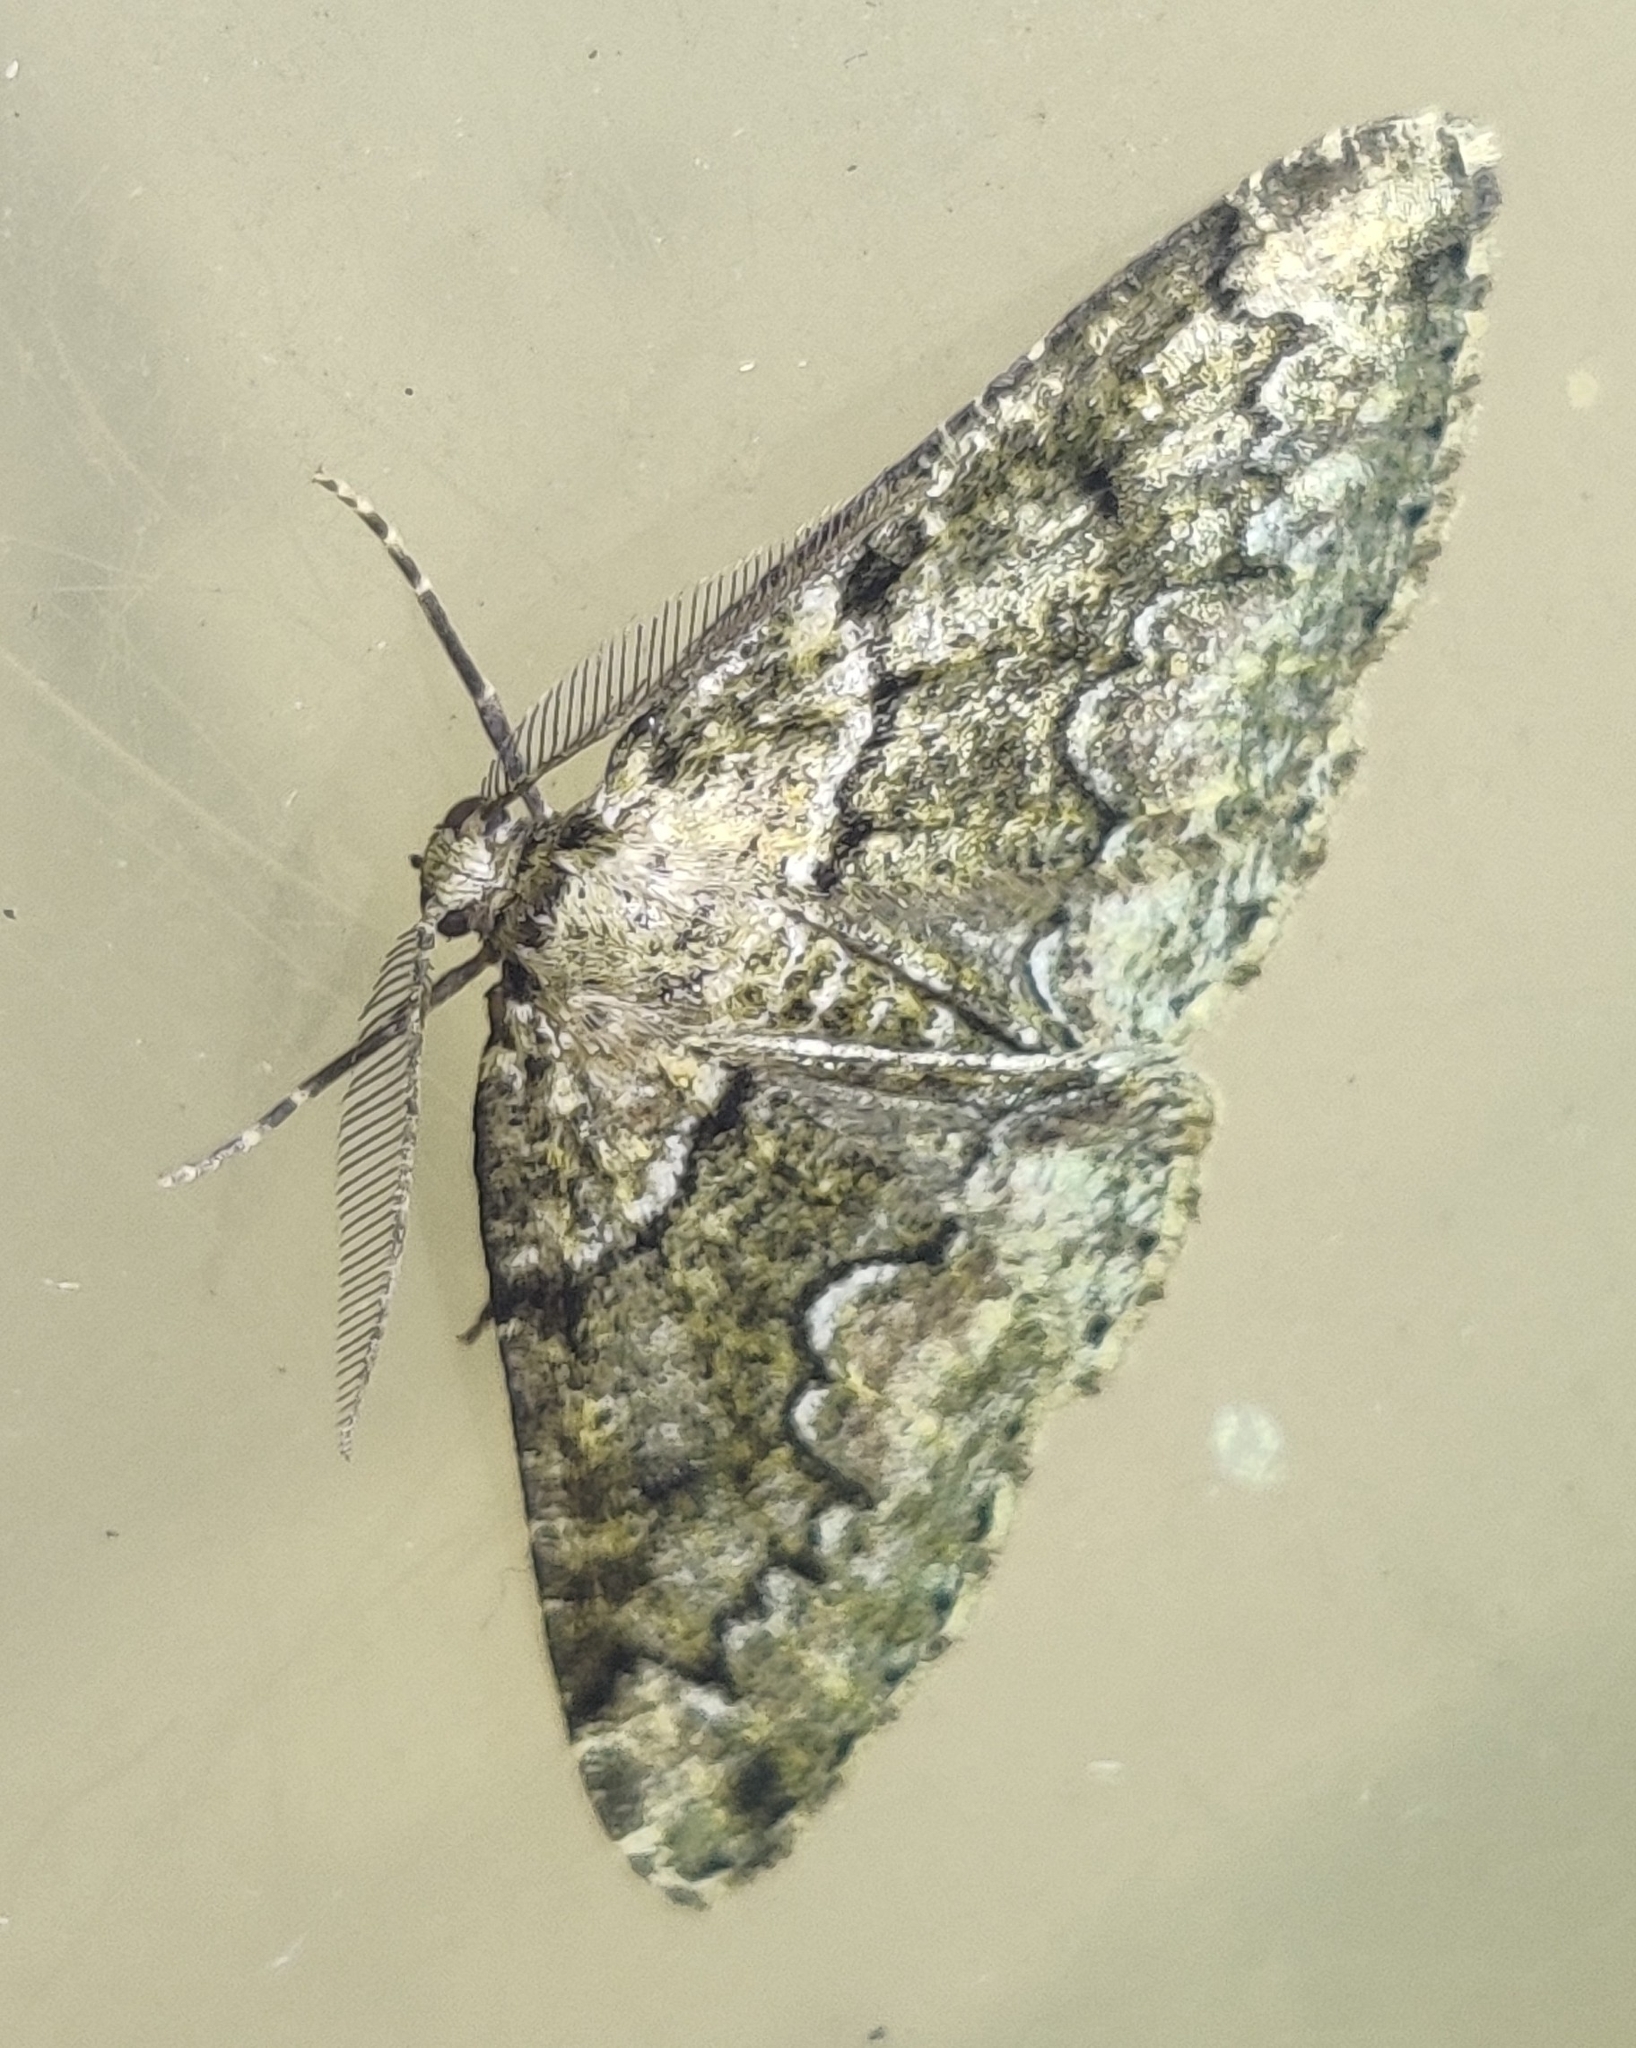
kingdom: Animalia
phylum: Arthropoda
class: Insecta
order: Lepidoptera
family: Geometridae
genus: Cleorodes
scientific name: Cleorodes lichenaria
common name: Brussels lace
